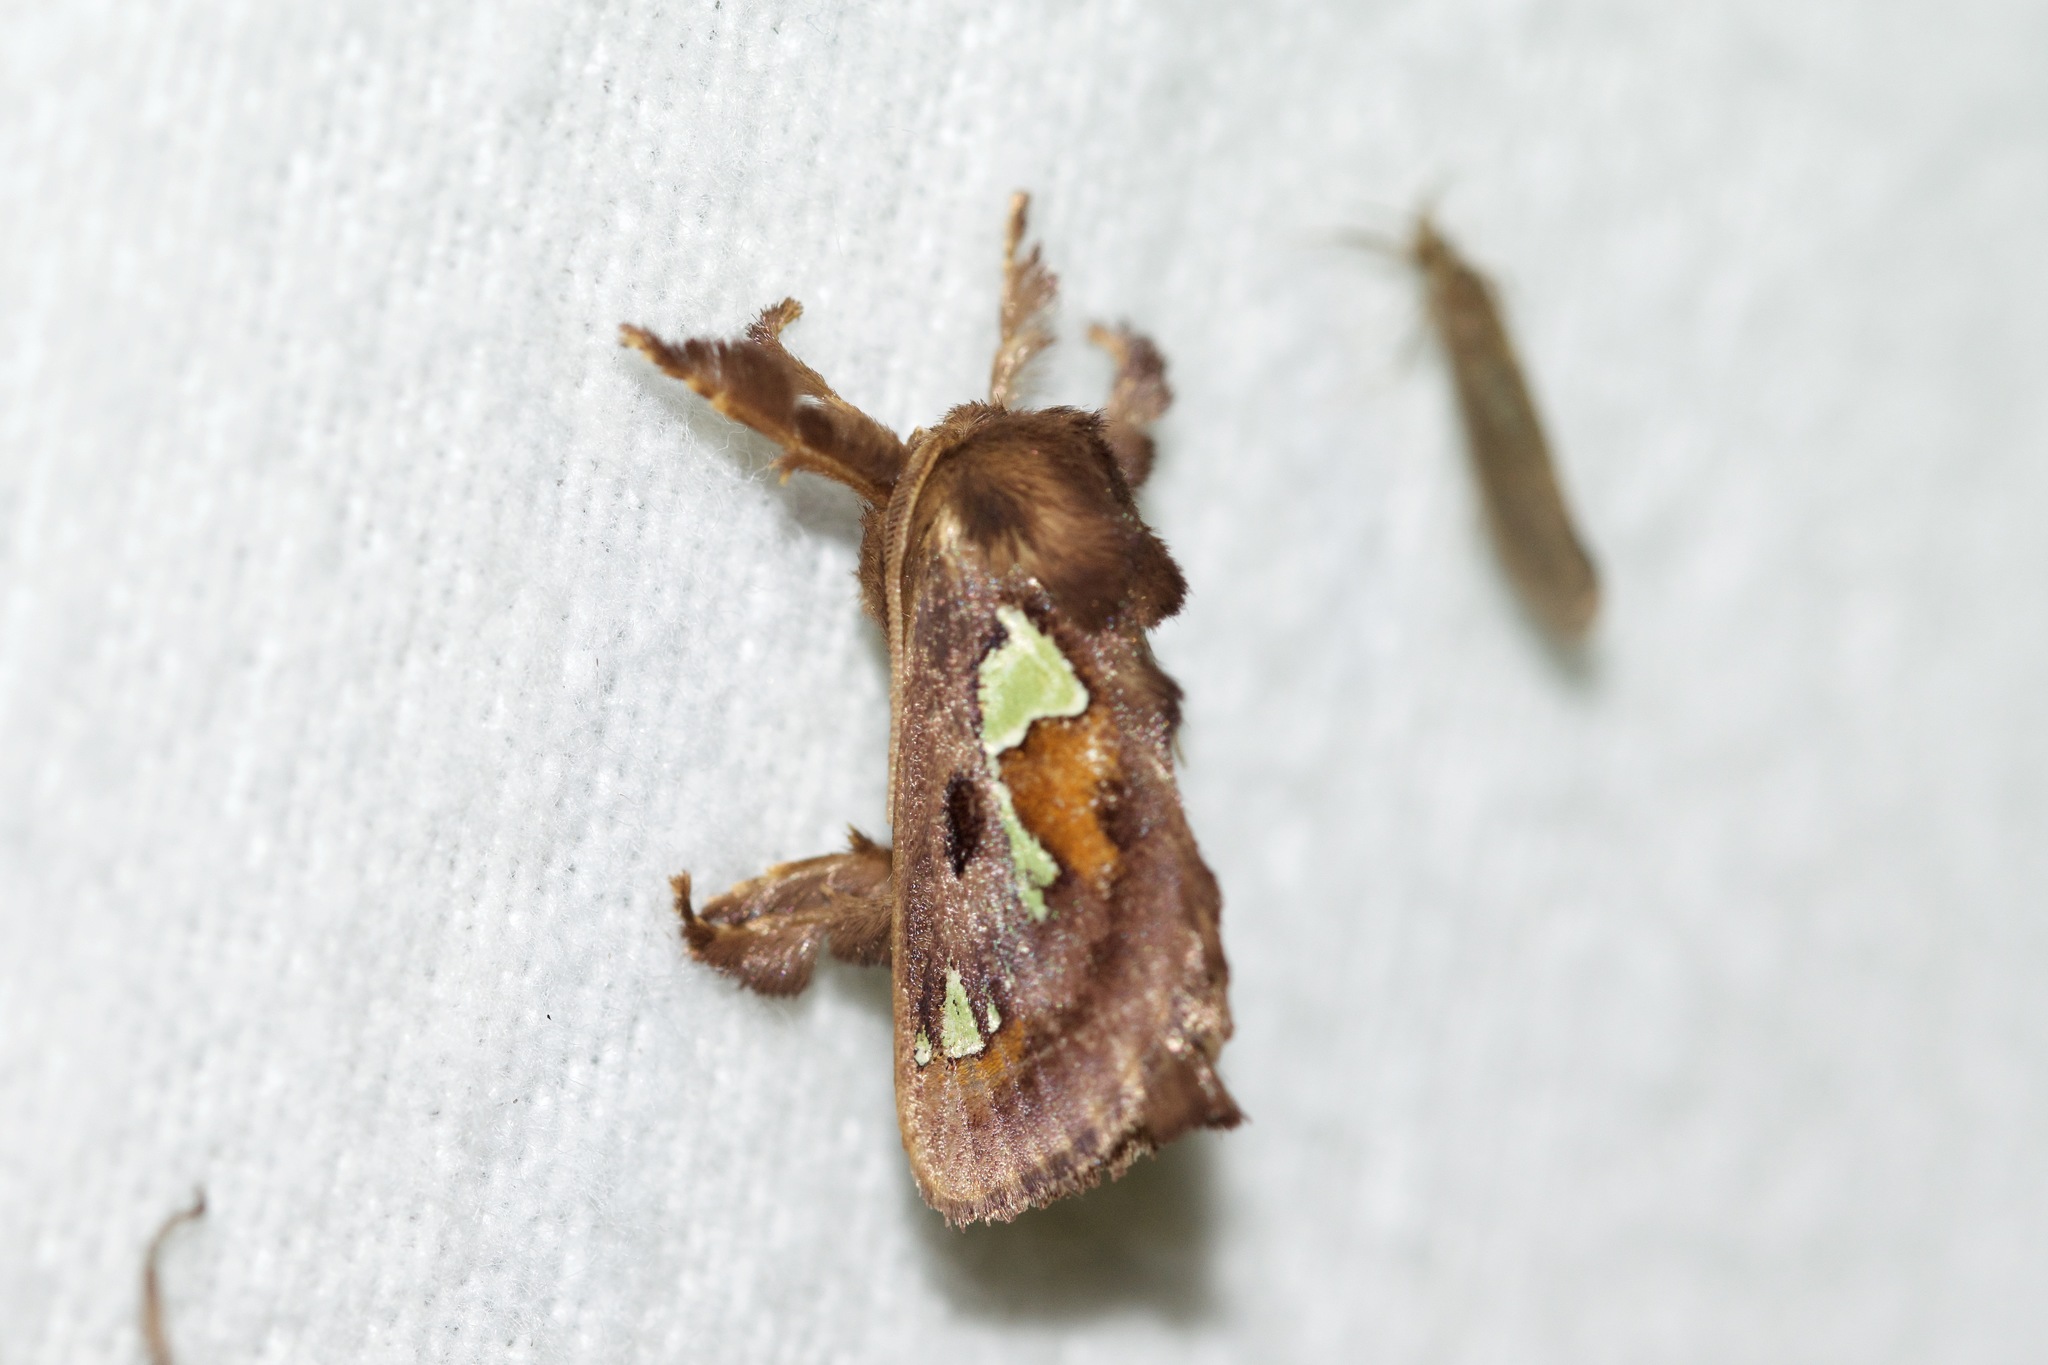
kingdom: Animalia
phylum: Arthropoda
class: Insecta
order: Lepidoptera
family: Limacodidae
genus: Euclea
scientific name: Euclea delphinii
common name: Spiny oak-slug moth
